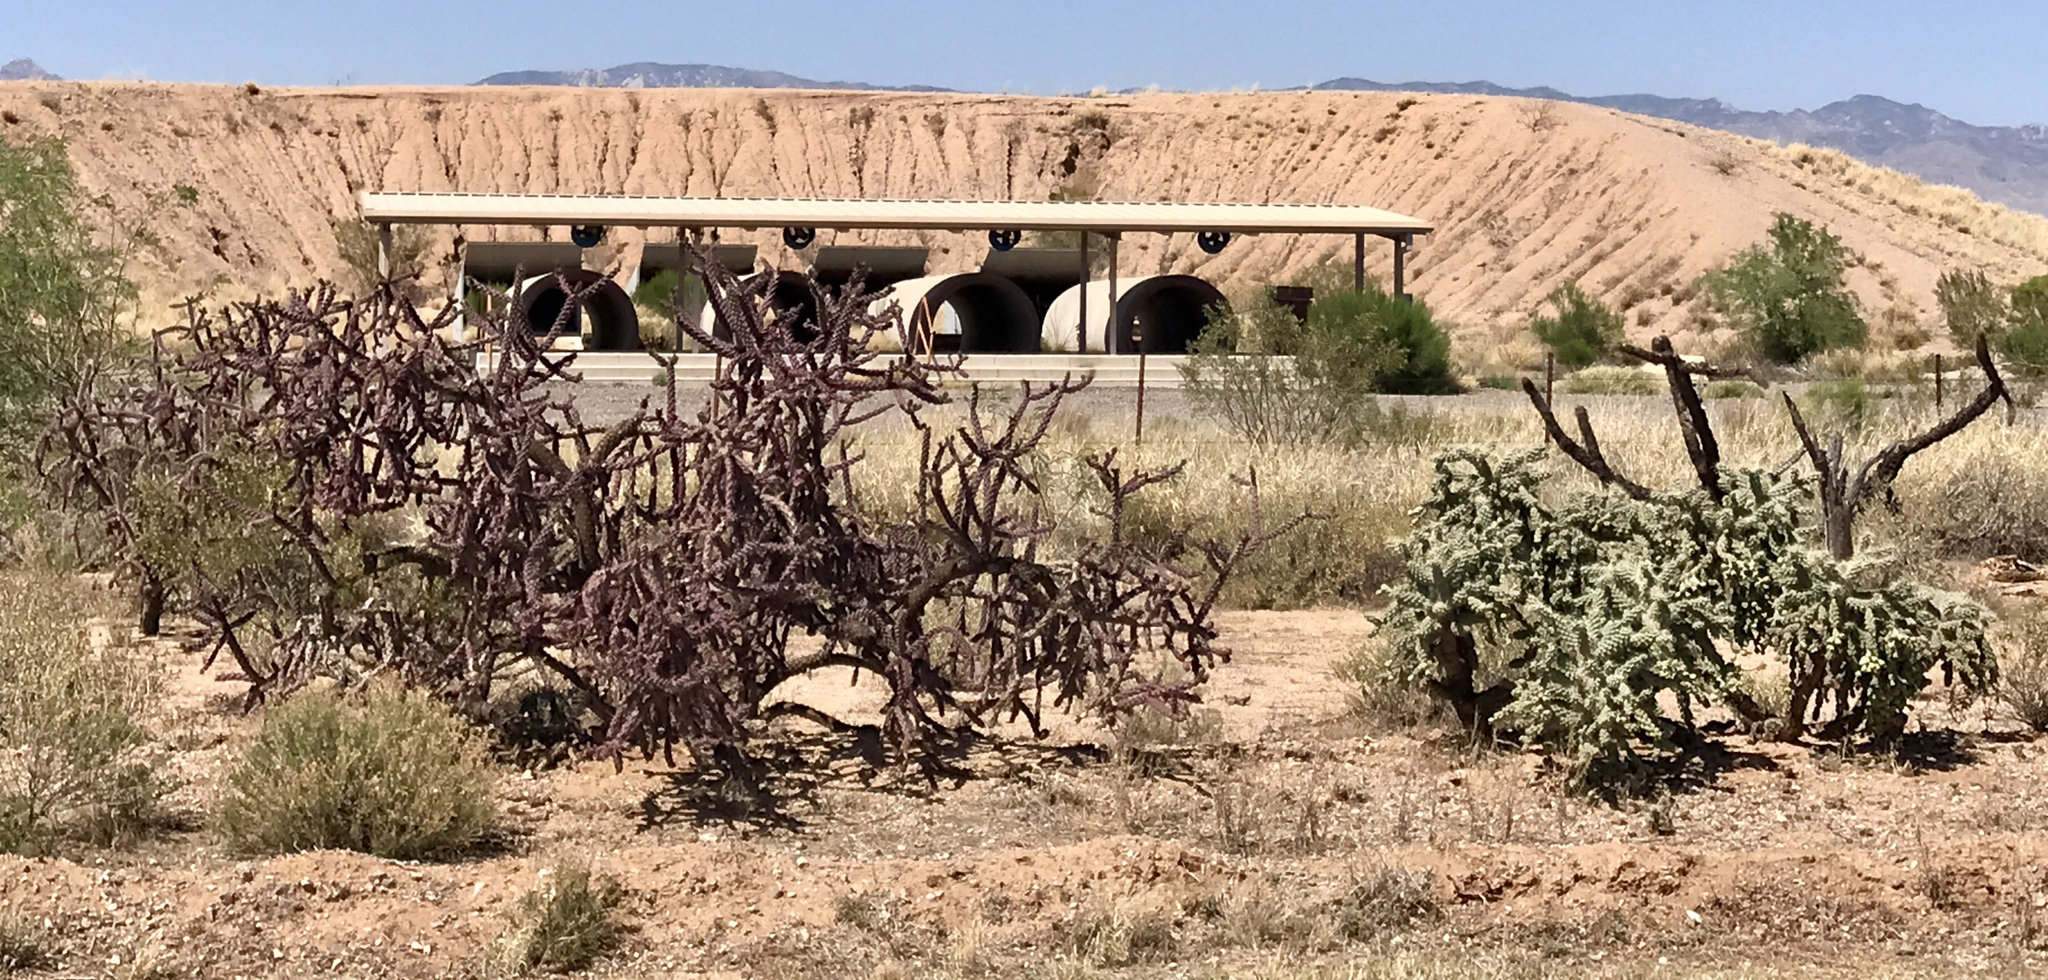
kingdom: Plantae
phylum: Tracheophyta
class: Magnoliopsida
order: Caryophyllales
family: Cactaceae
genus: Cylindropuntia
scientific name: Cylindropuntia fulgida
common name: Jumping cholla
